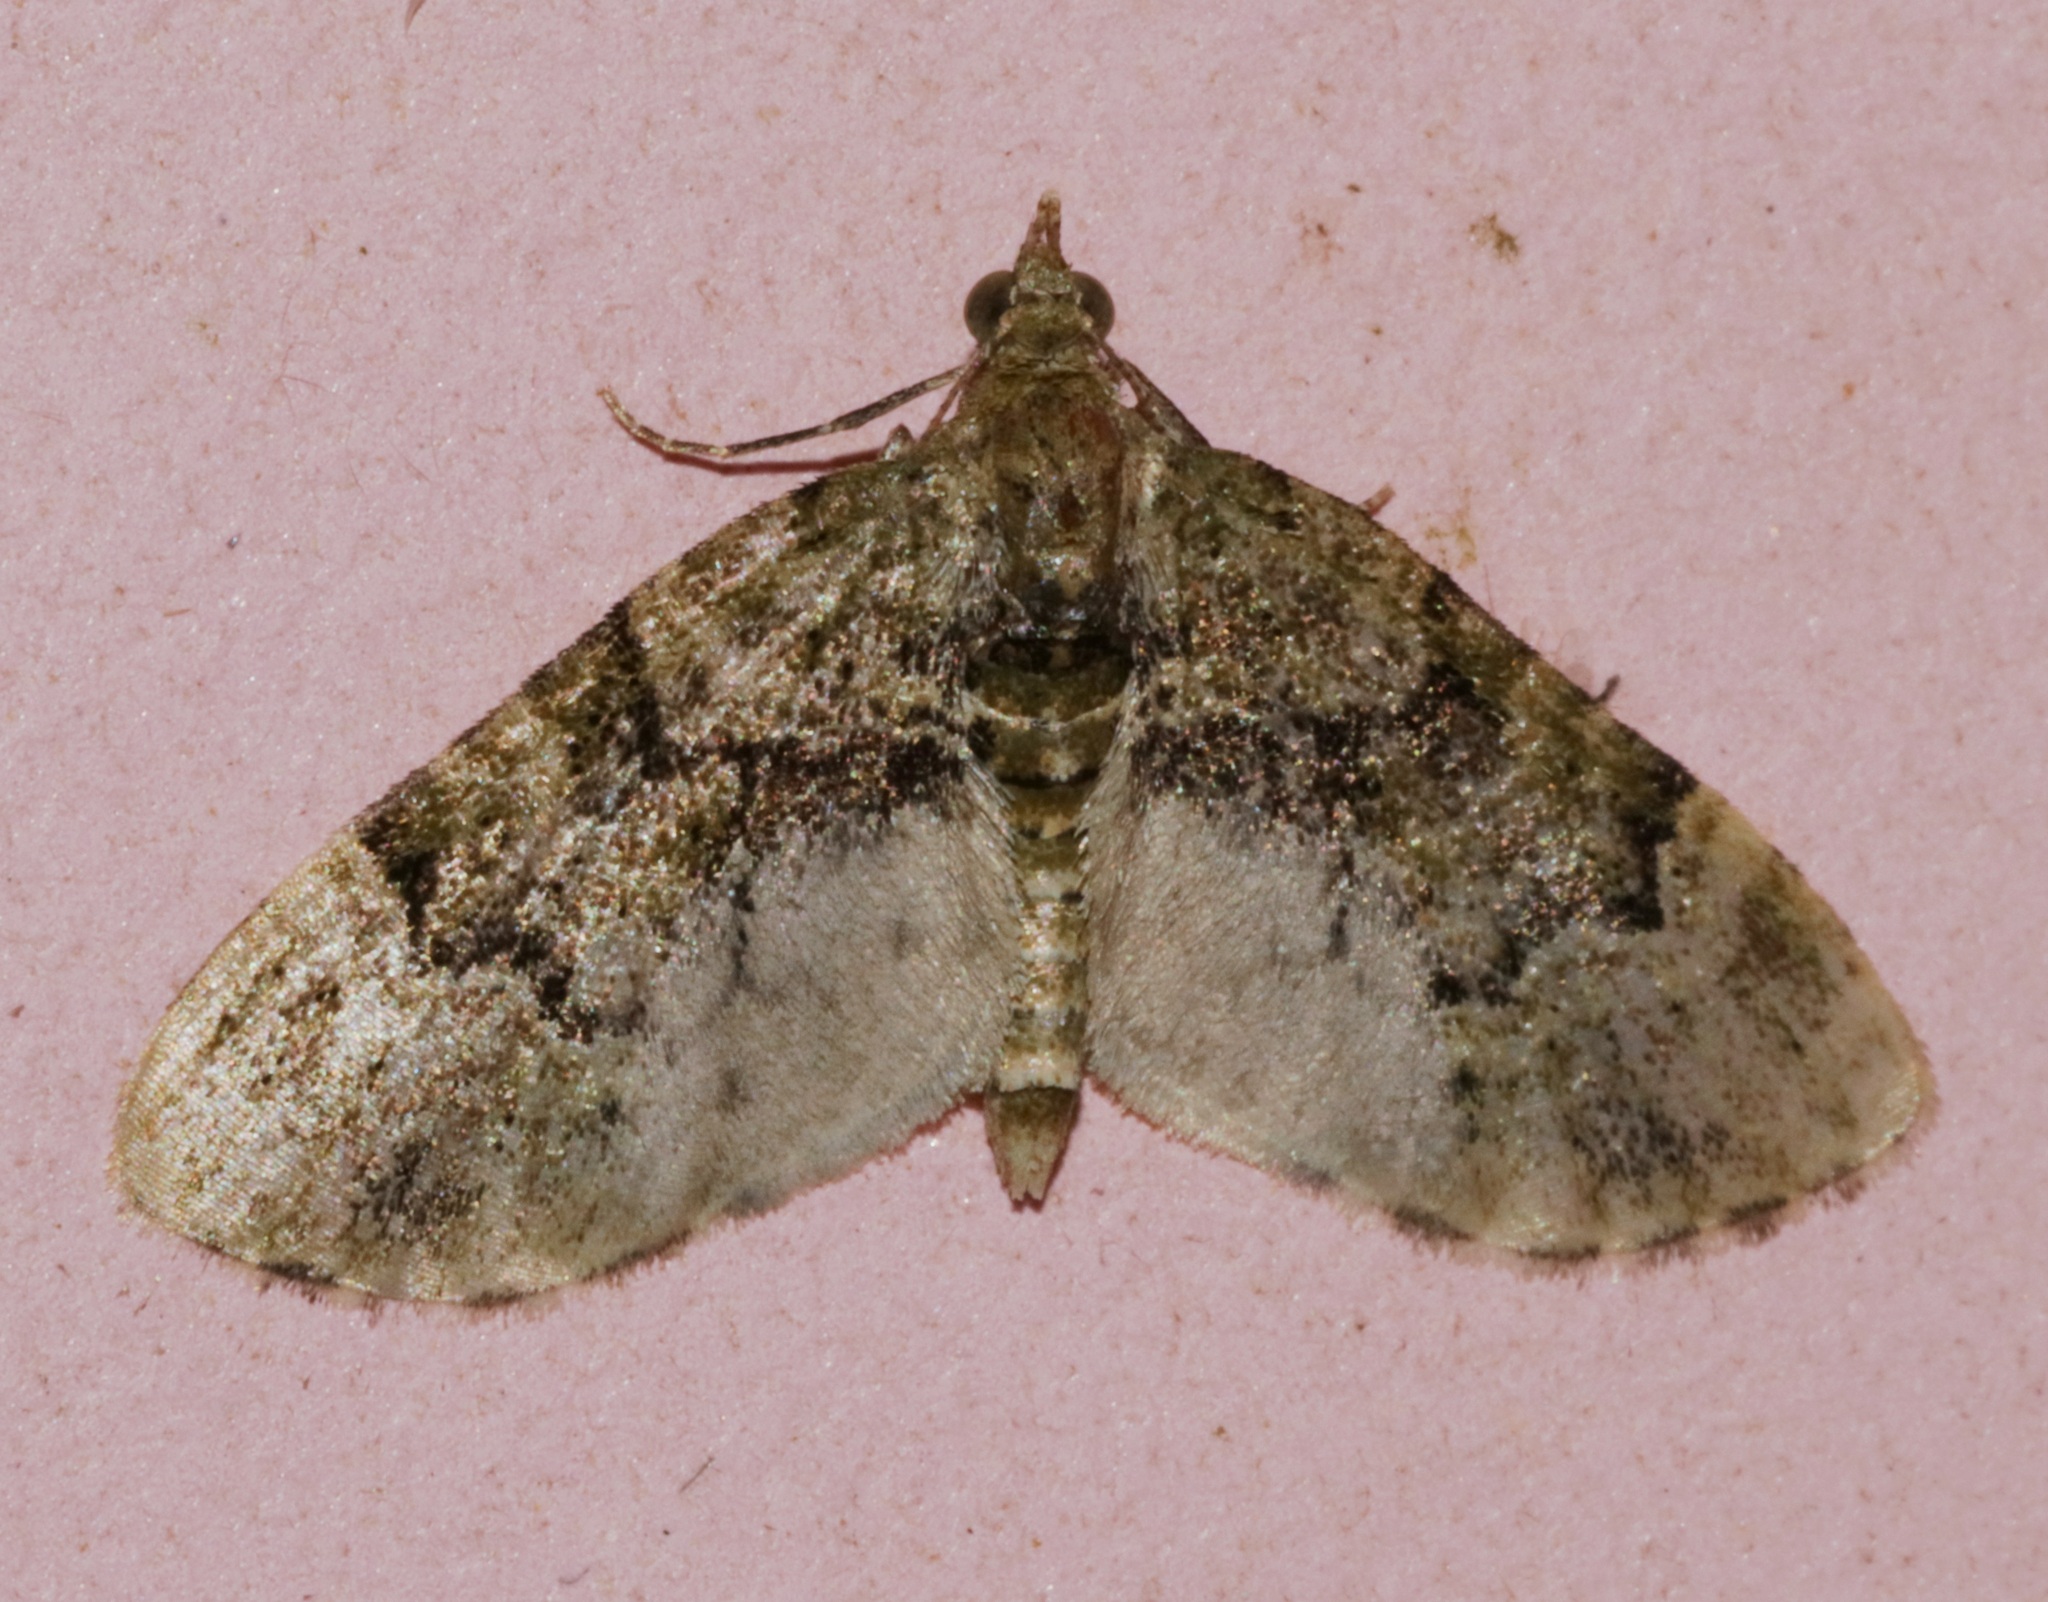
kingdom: Animalia
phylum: Arthropoda
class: Insecta
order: Lepidoptera
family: Geometridae
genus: Chloroclystis
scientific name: Chloroclystis conversa
